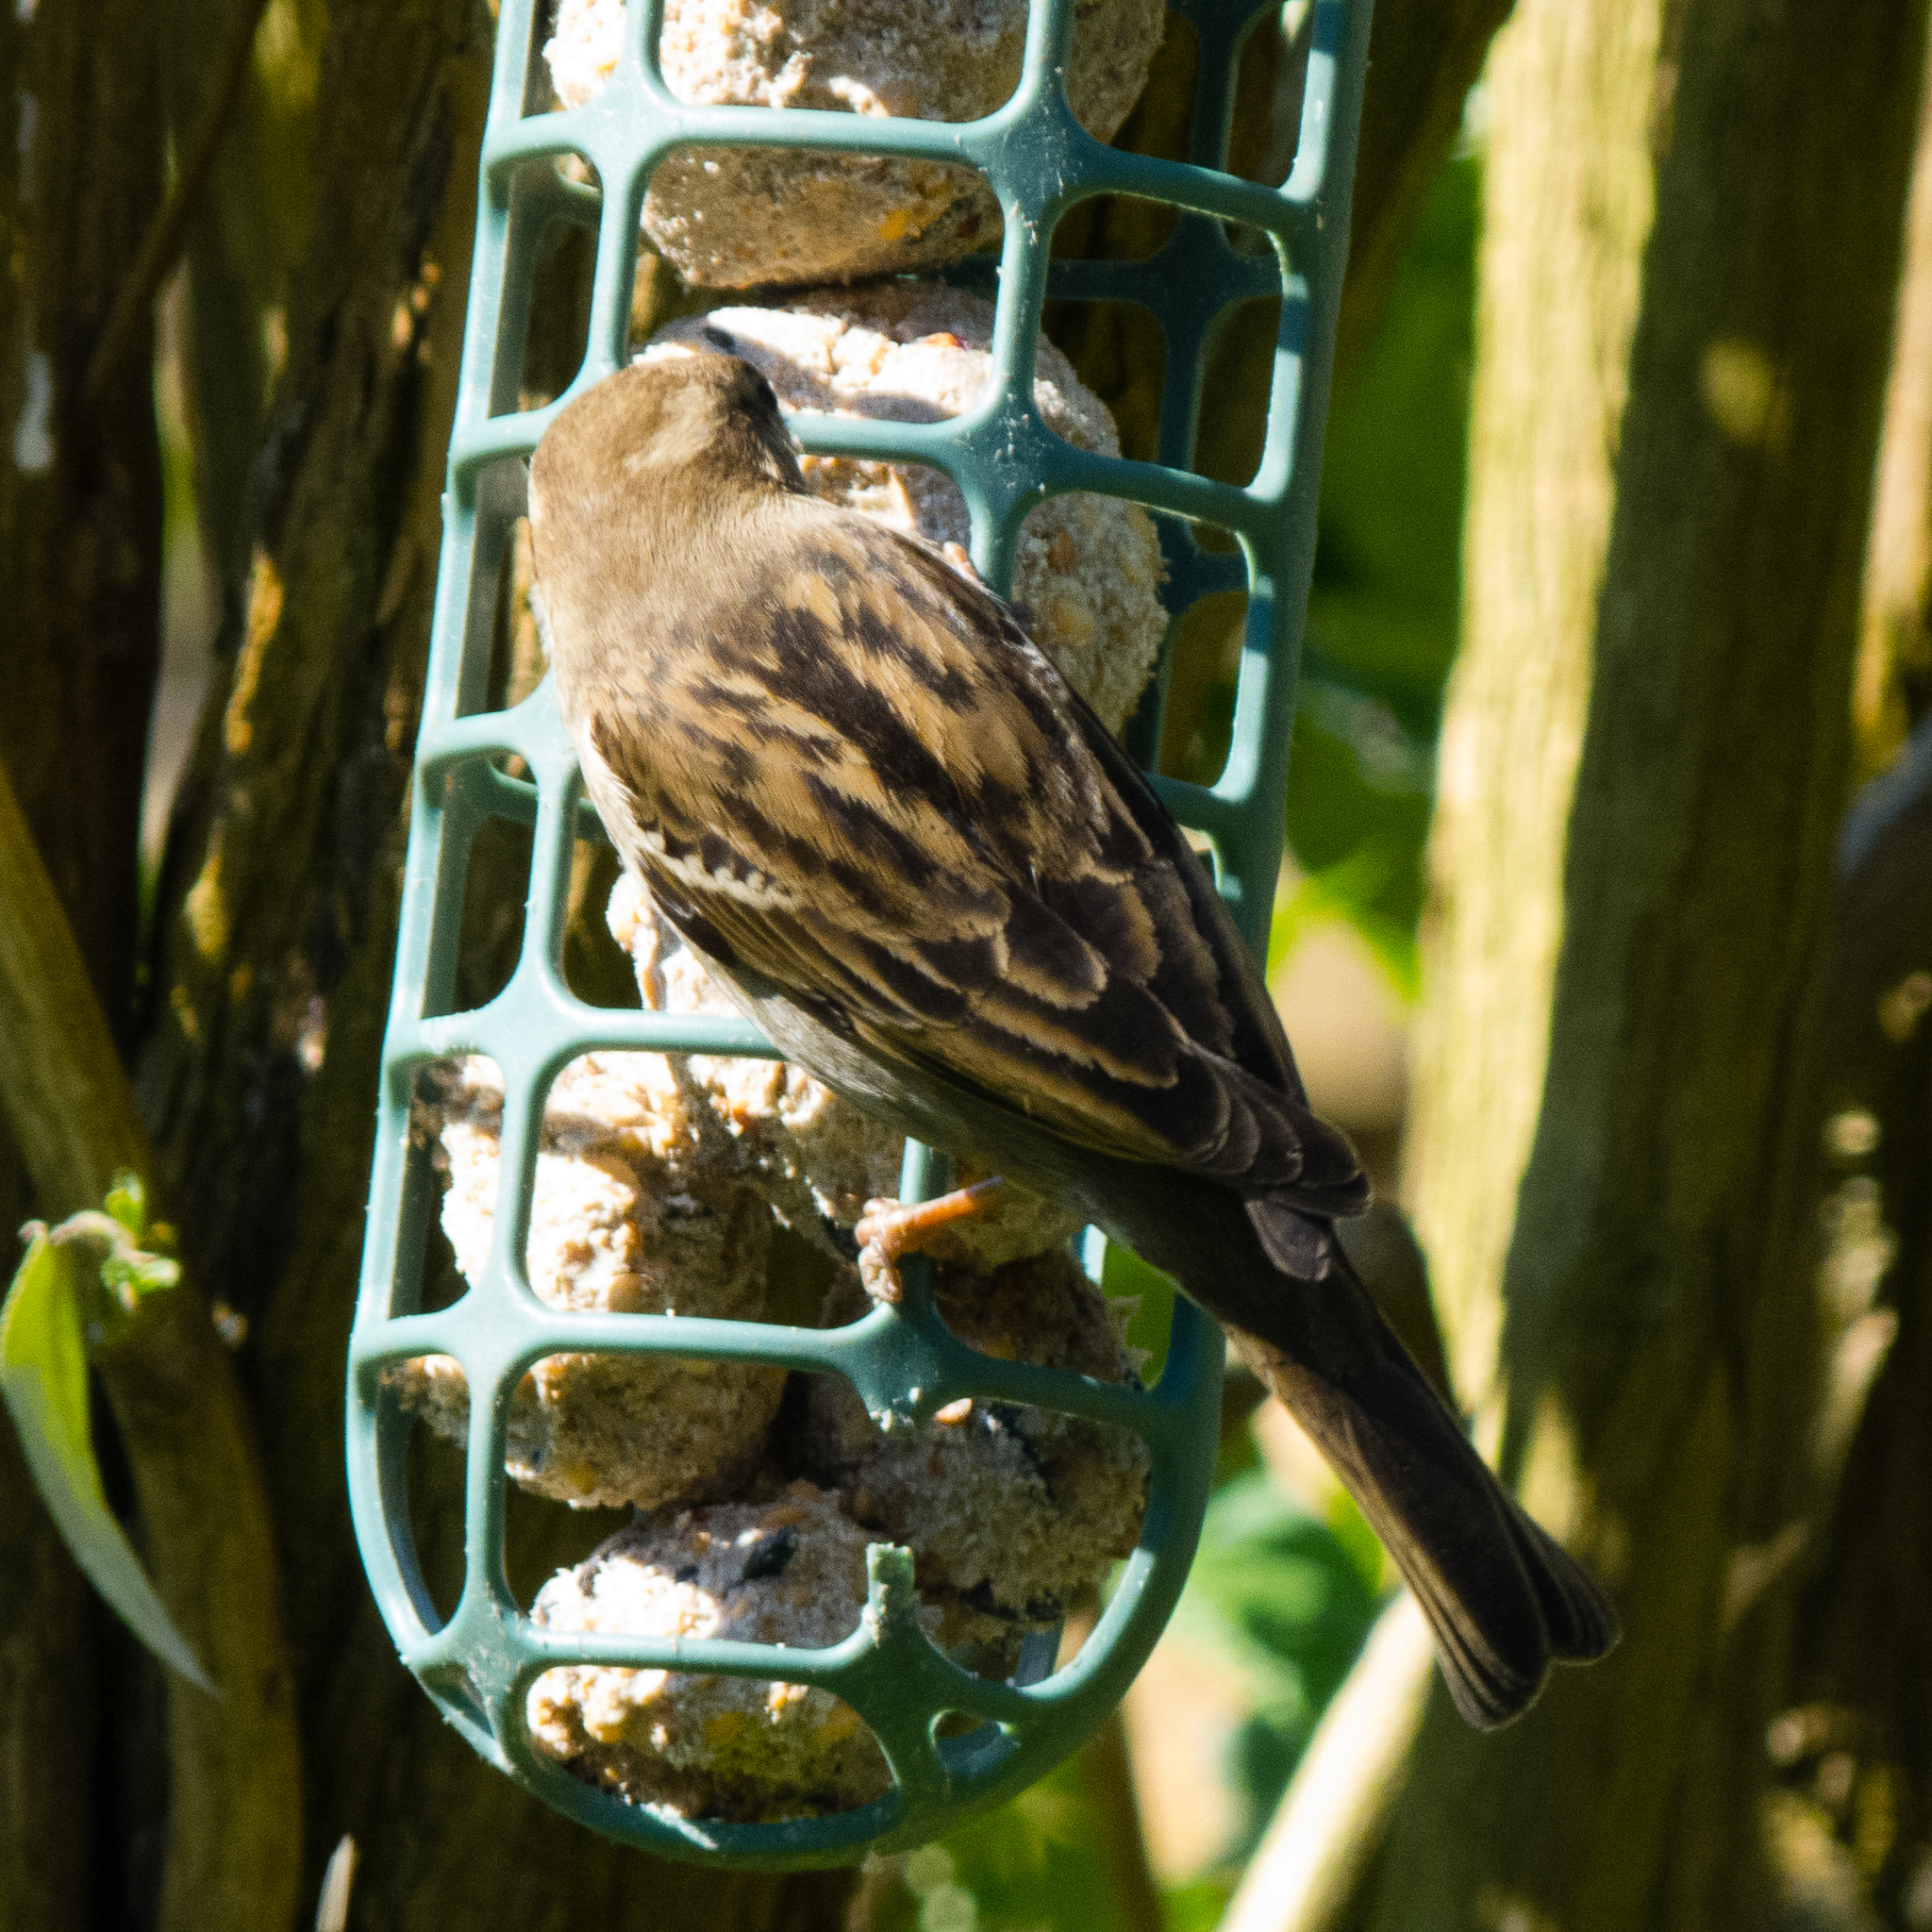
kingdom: Animalia
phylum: Chordata
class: Aves
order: Passeriformes
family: Passeridae
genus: Passer
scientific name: Passer domesticus
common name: House sparrow
